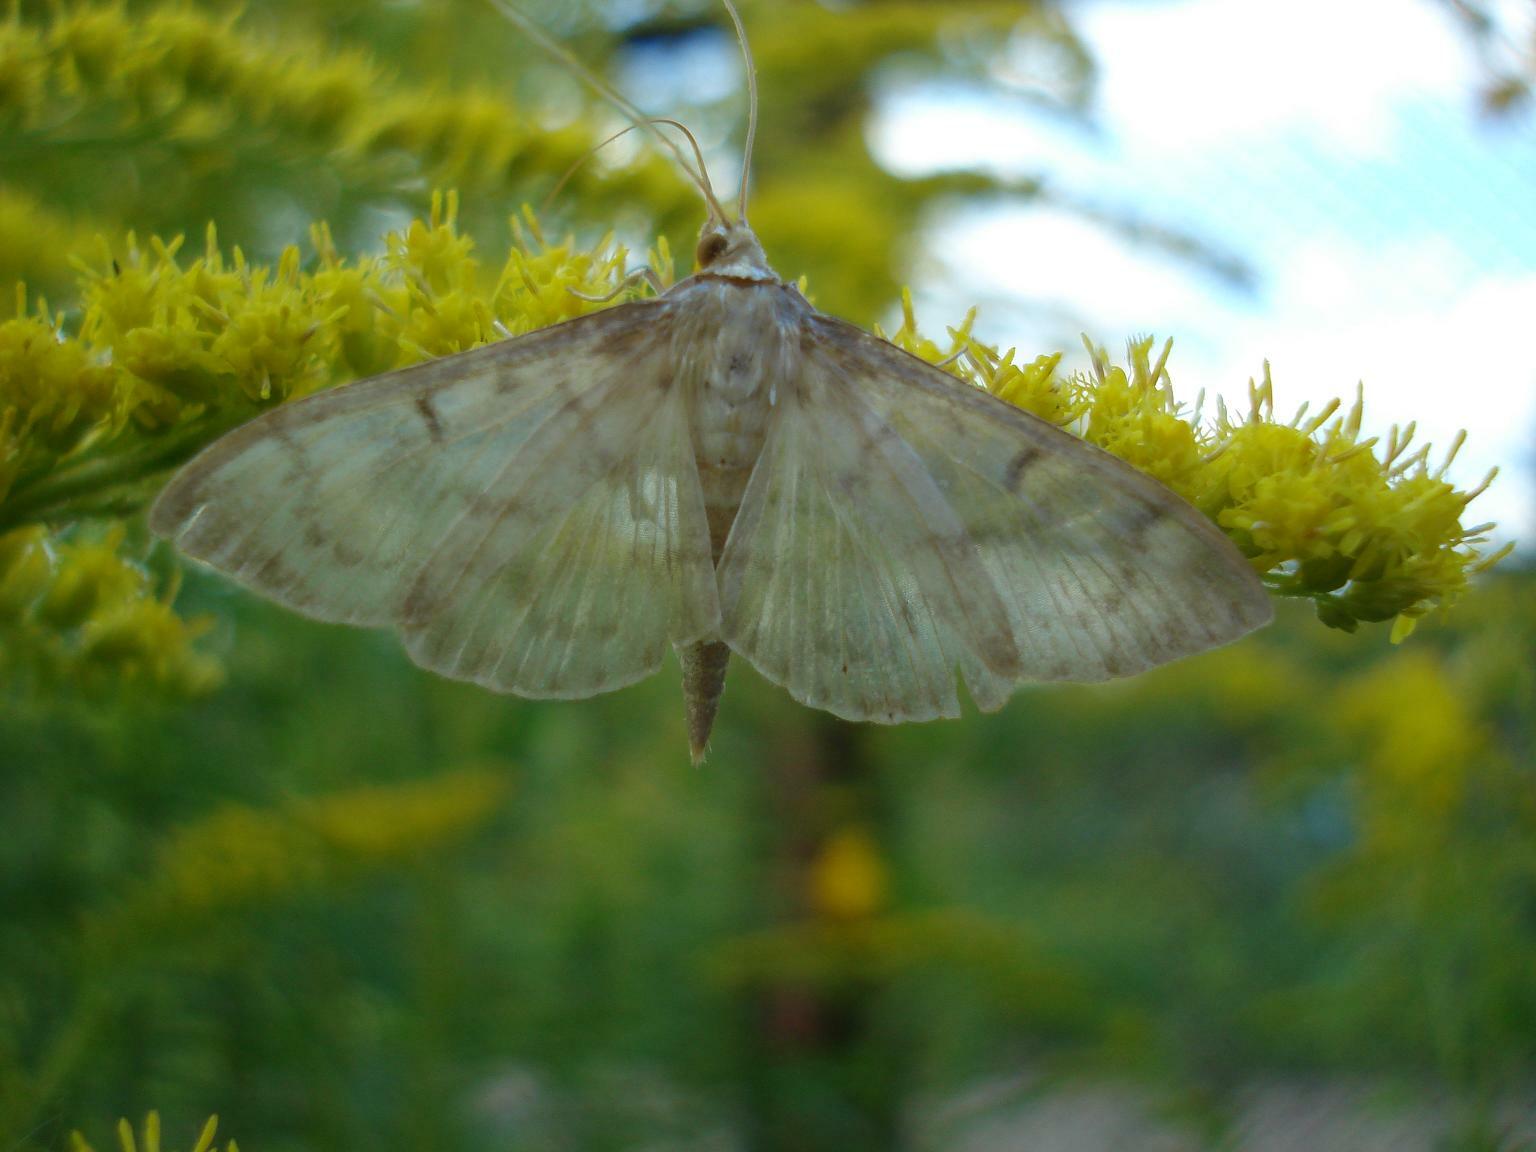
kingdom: Animalia
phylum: Arthropoda
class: Insecta
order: Lepidoptera
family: Crambidae
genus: Patania
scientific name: Patania ruralis
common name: Mother of pearl
